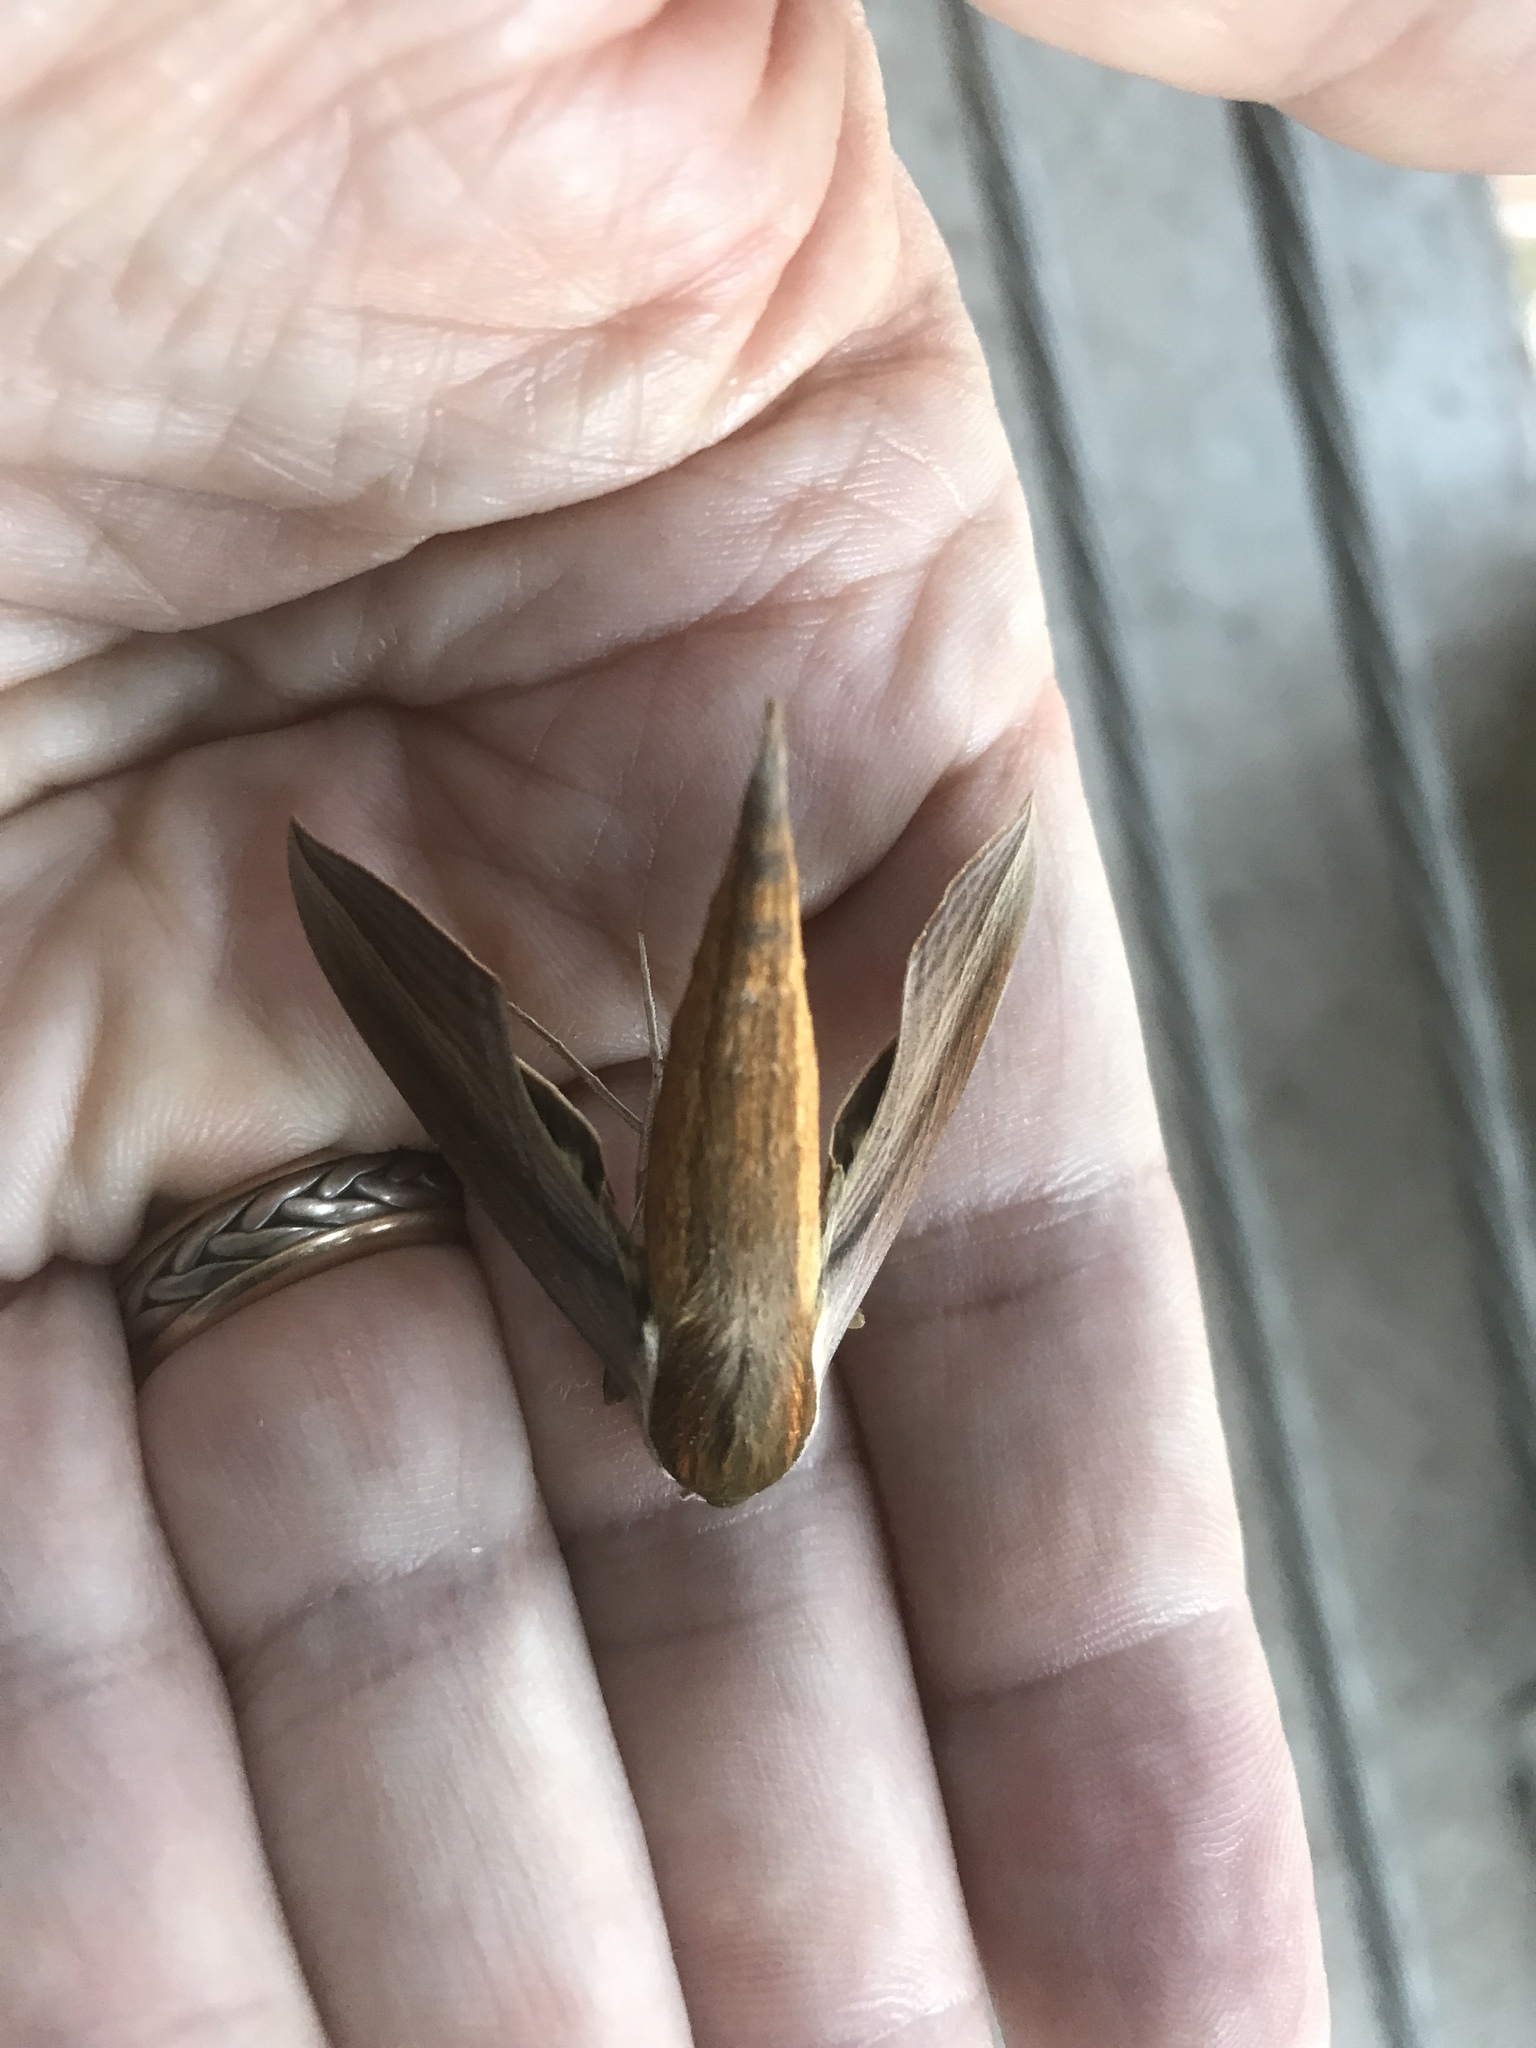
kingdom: Animalia
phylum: Arthropoda
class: Insecta
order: Lepidoptera
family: Sphingidae
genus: Xylophanes
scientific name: Xylophanes tersa
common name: Tersa sphinx
